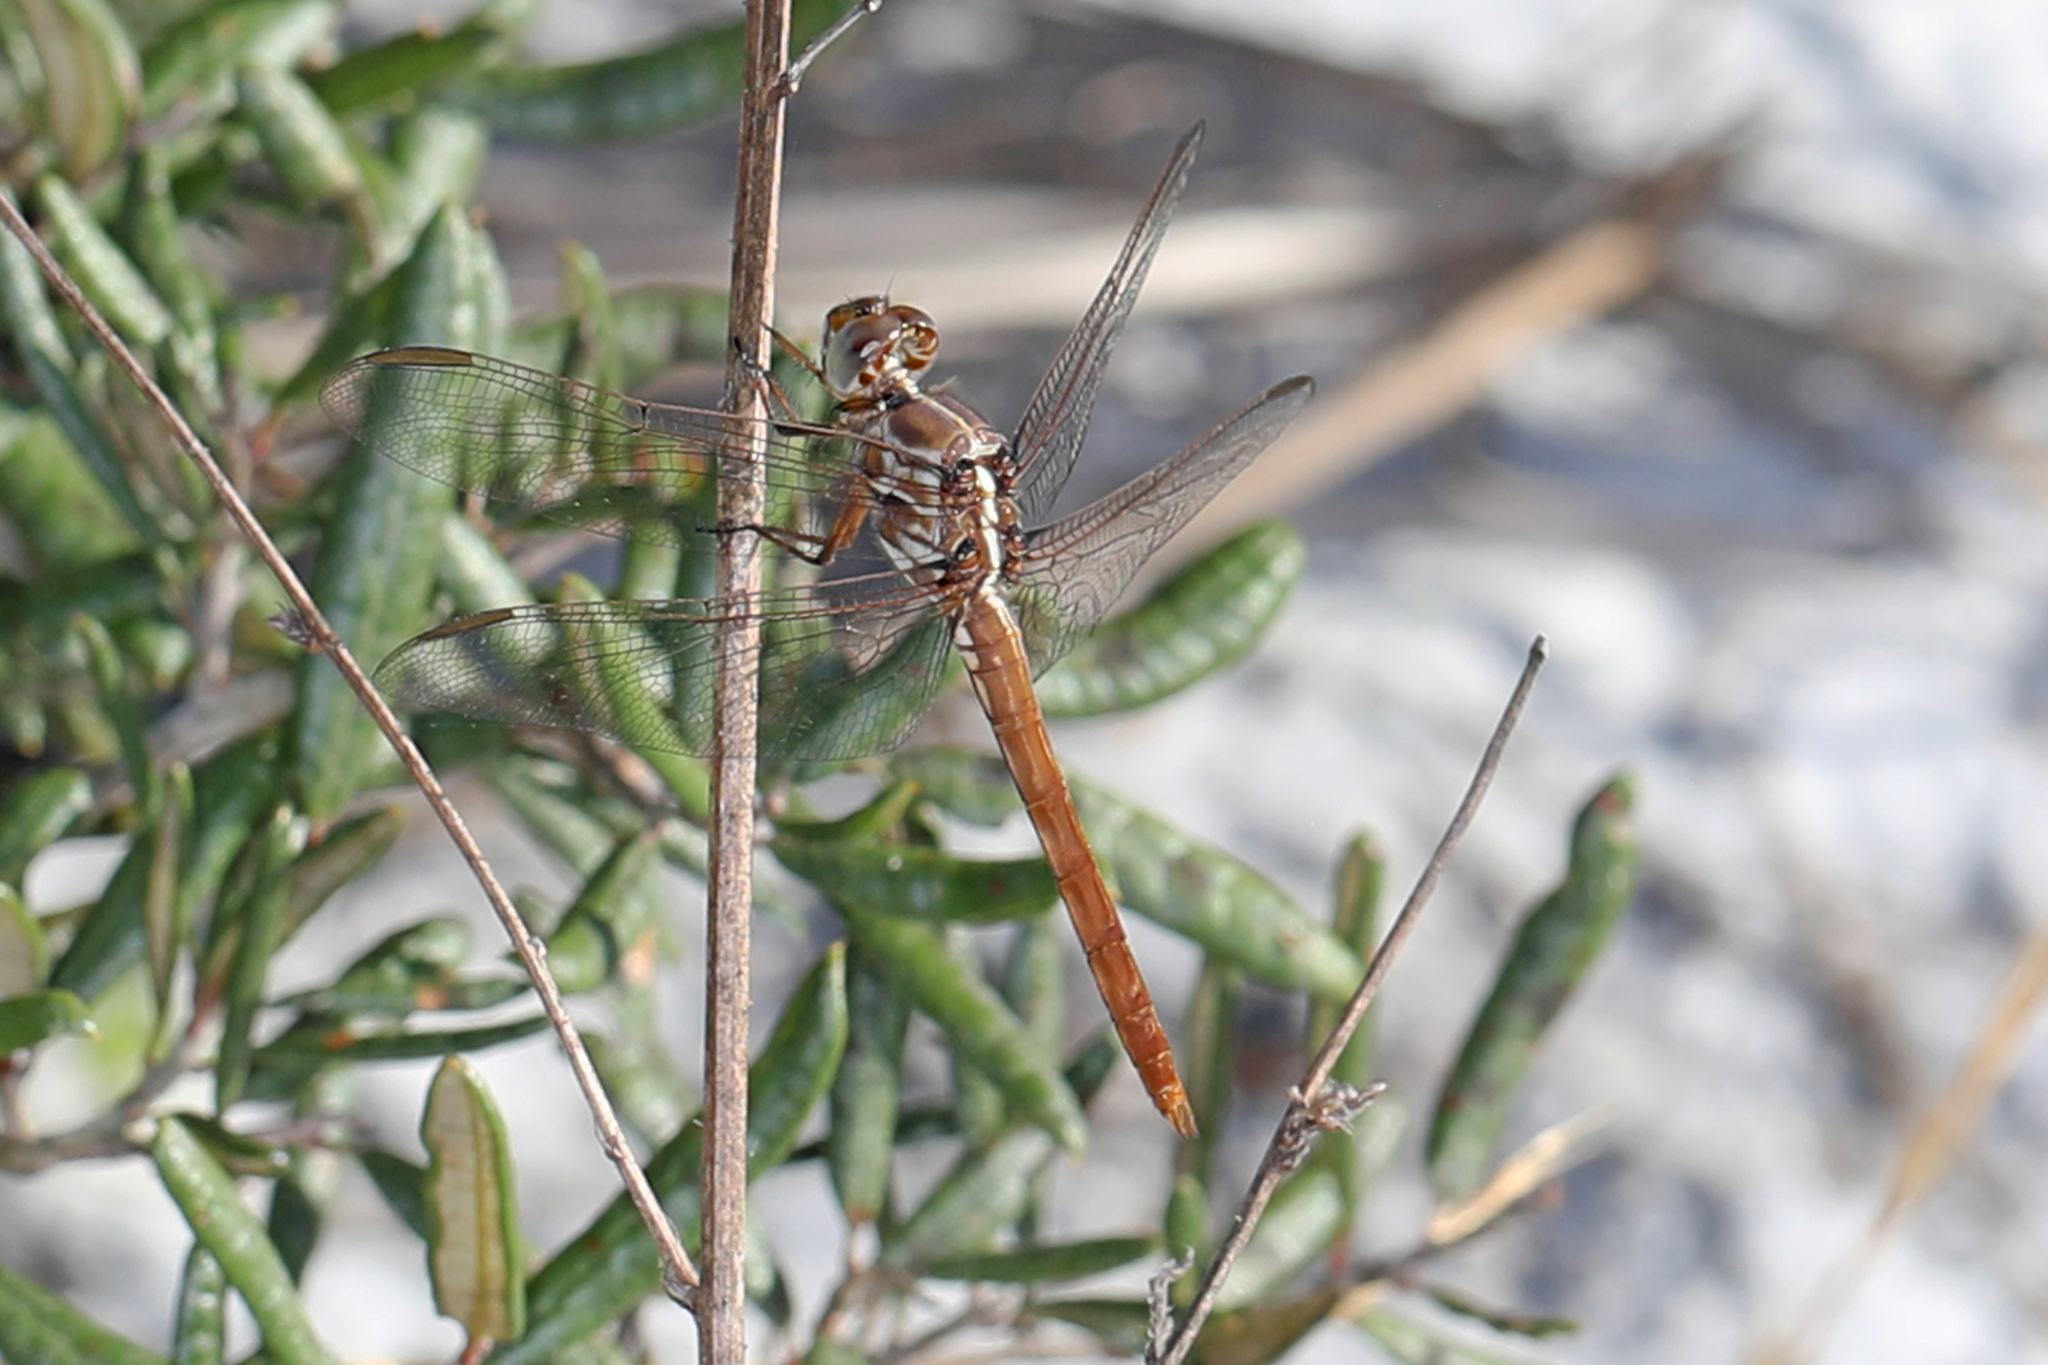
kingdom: Animalia
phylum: Arthropoda
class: Insecta
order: Odonata
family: Libellulidae
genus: Orthemis
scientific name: Orthemis ferruginea
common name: Roseate skimmer
